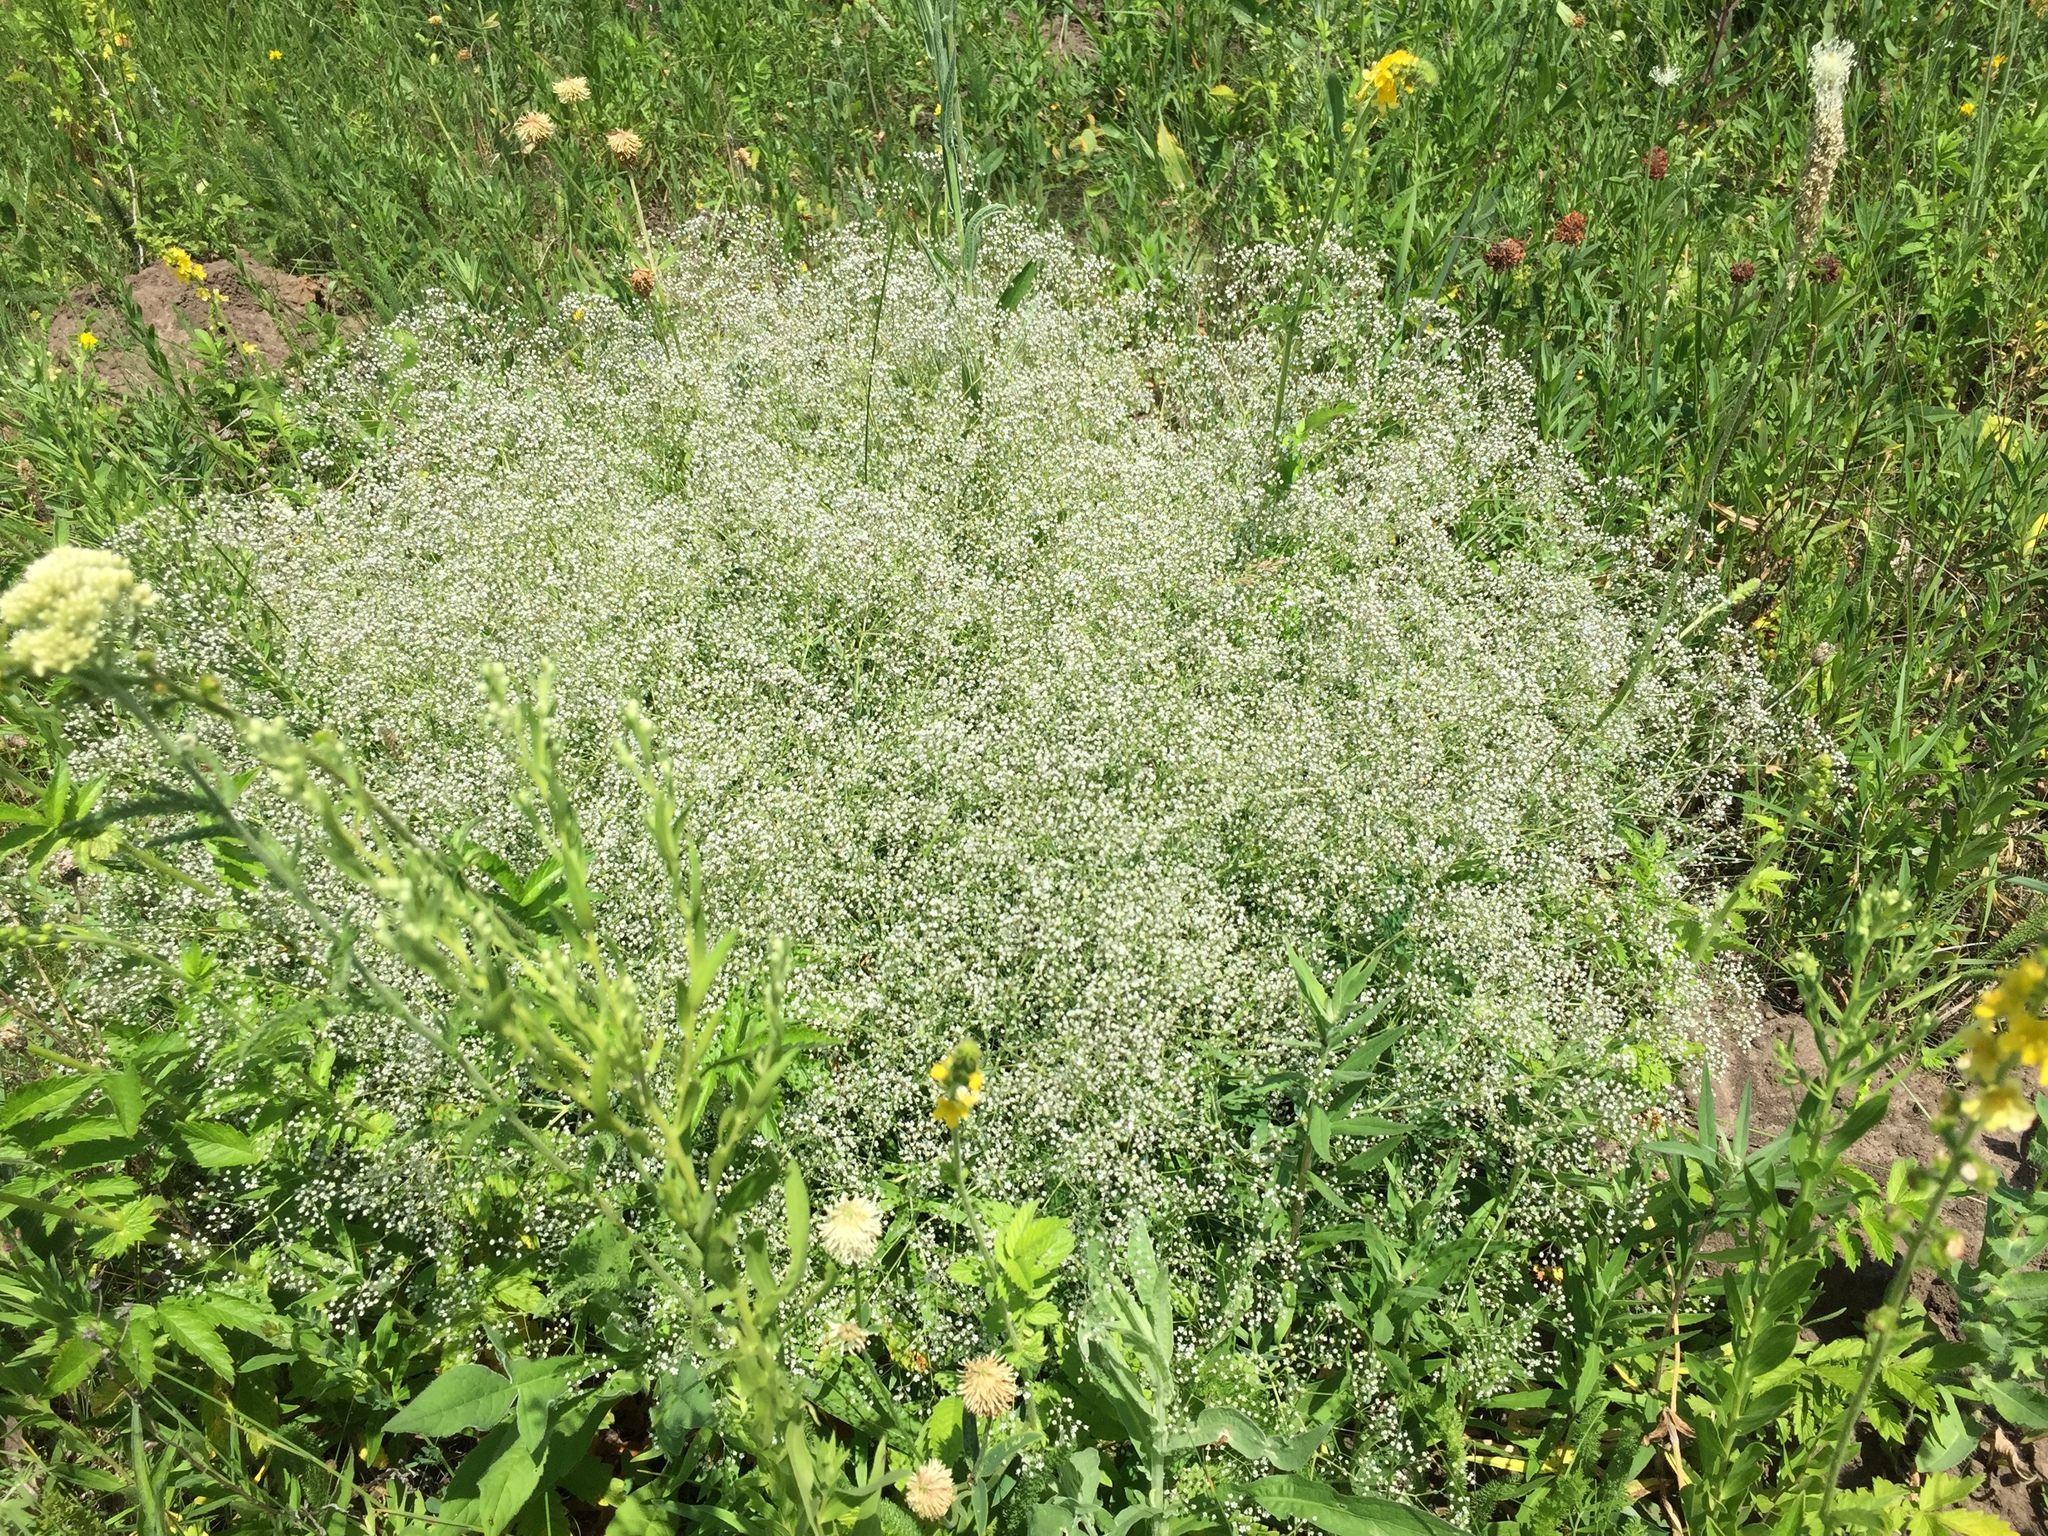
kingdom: Plantae
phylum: Tracheophyta
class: Magnoliopsida
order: Caryophyllales
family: Caryophyllaceae
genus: Gypsophila
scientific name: Gypsophila paniculata
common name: Baby's-breath
